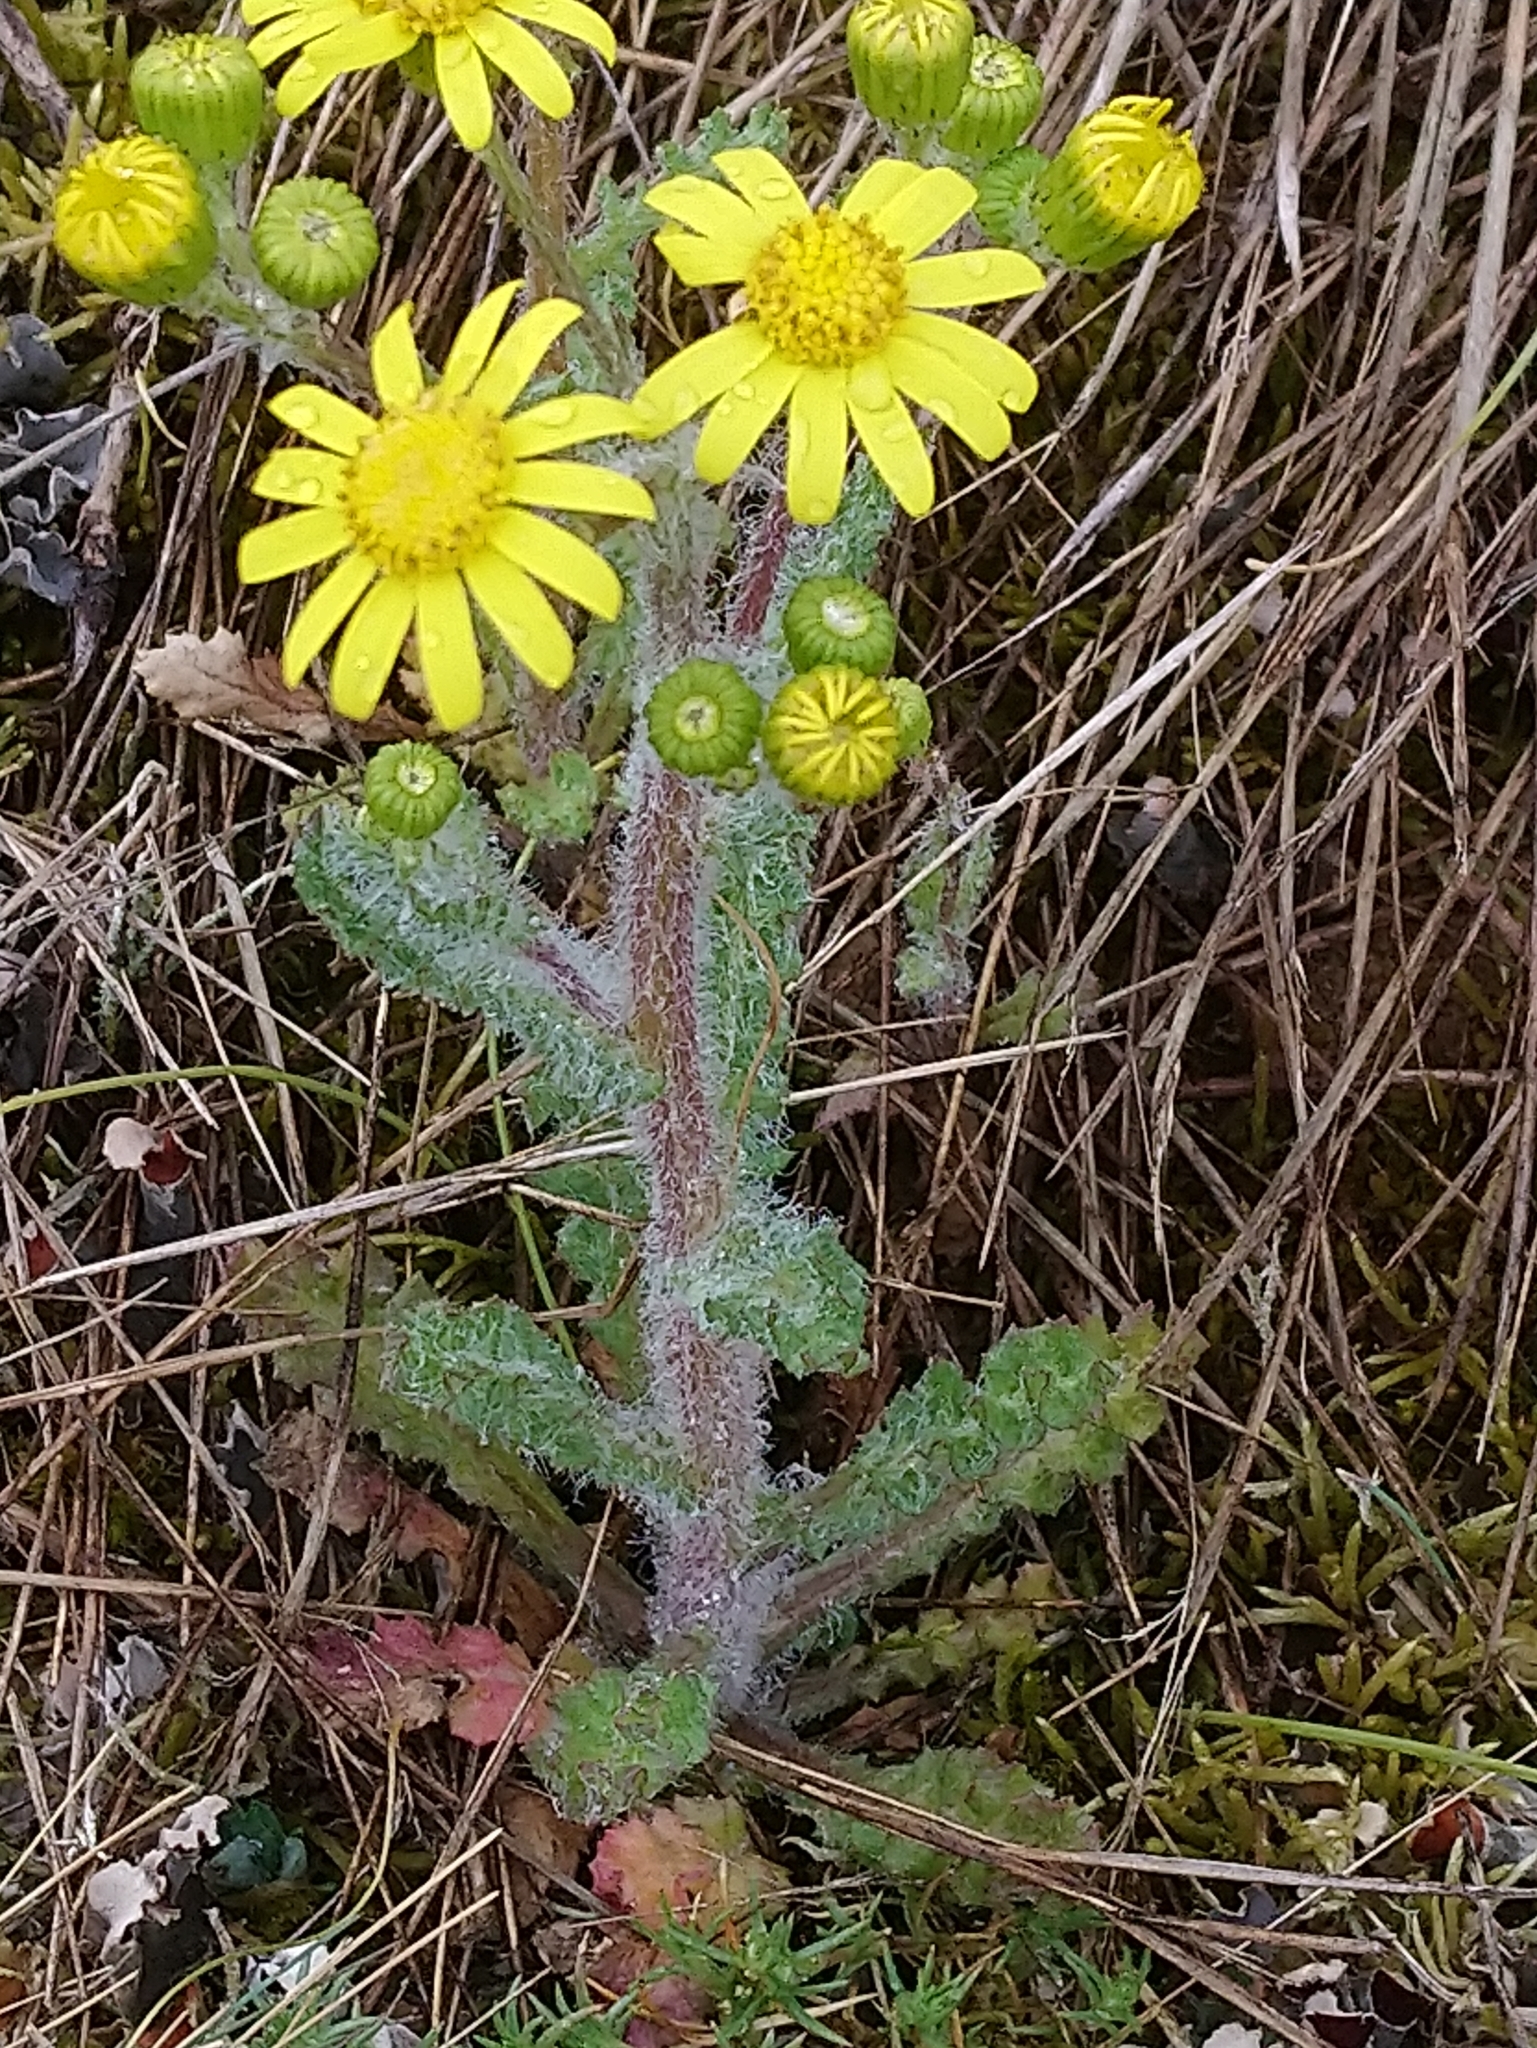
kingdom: Plantae
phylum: Tracheophyta
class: Magnoliopsida
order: Asterales
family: Asteraceae
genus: Senecio
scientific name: Senecio vernalis
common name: Eastern groundsel
